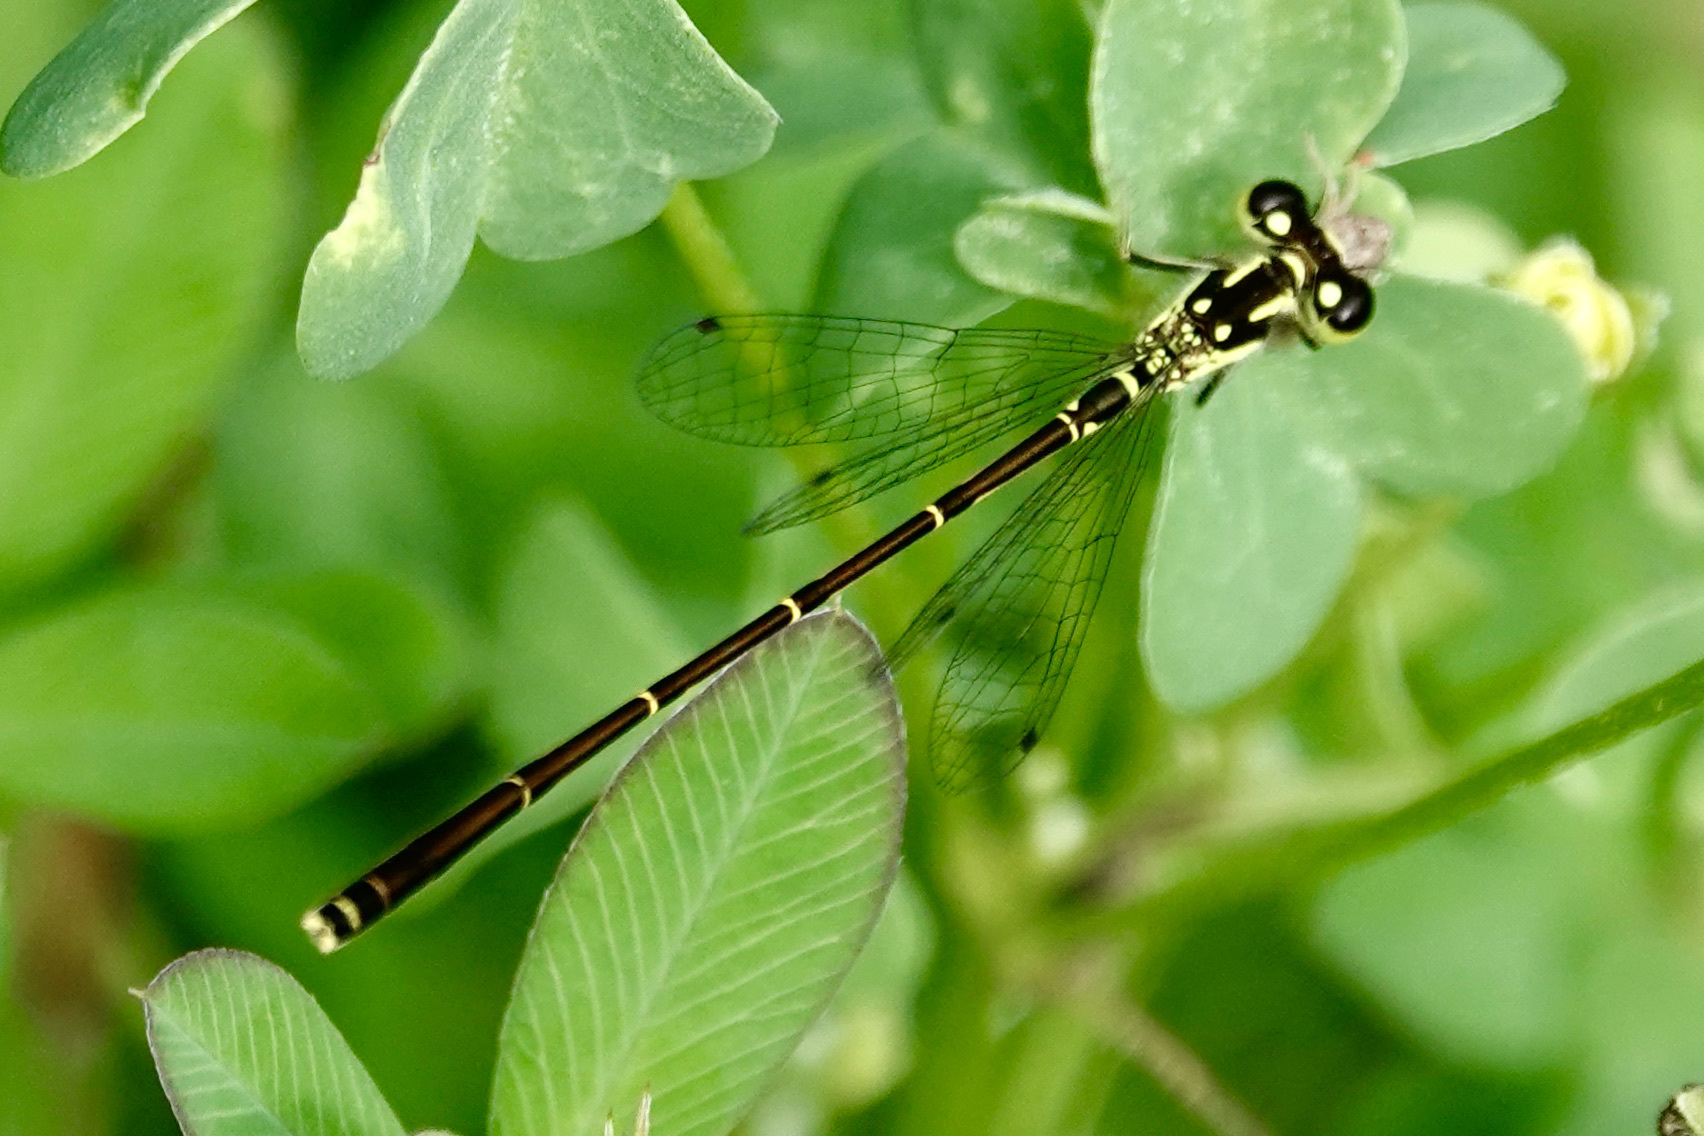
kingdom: Animalia
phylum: Arthropoda
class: Insecta
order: Odonata
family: Coenagrionidae
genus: Ischnura
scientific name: Ischnura posita
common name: Fragile forktail
